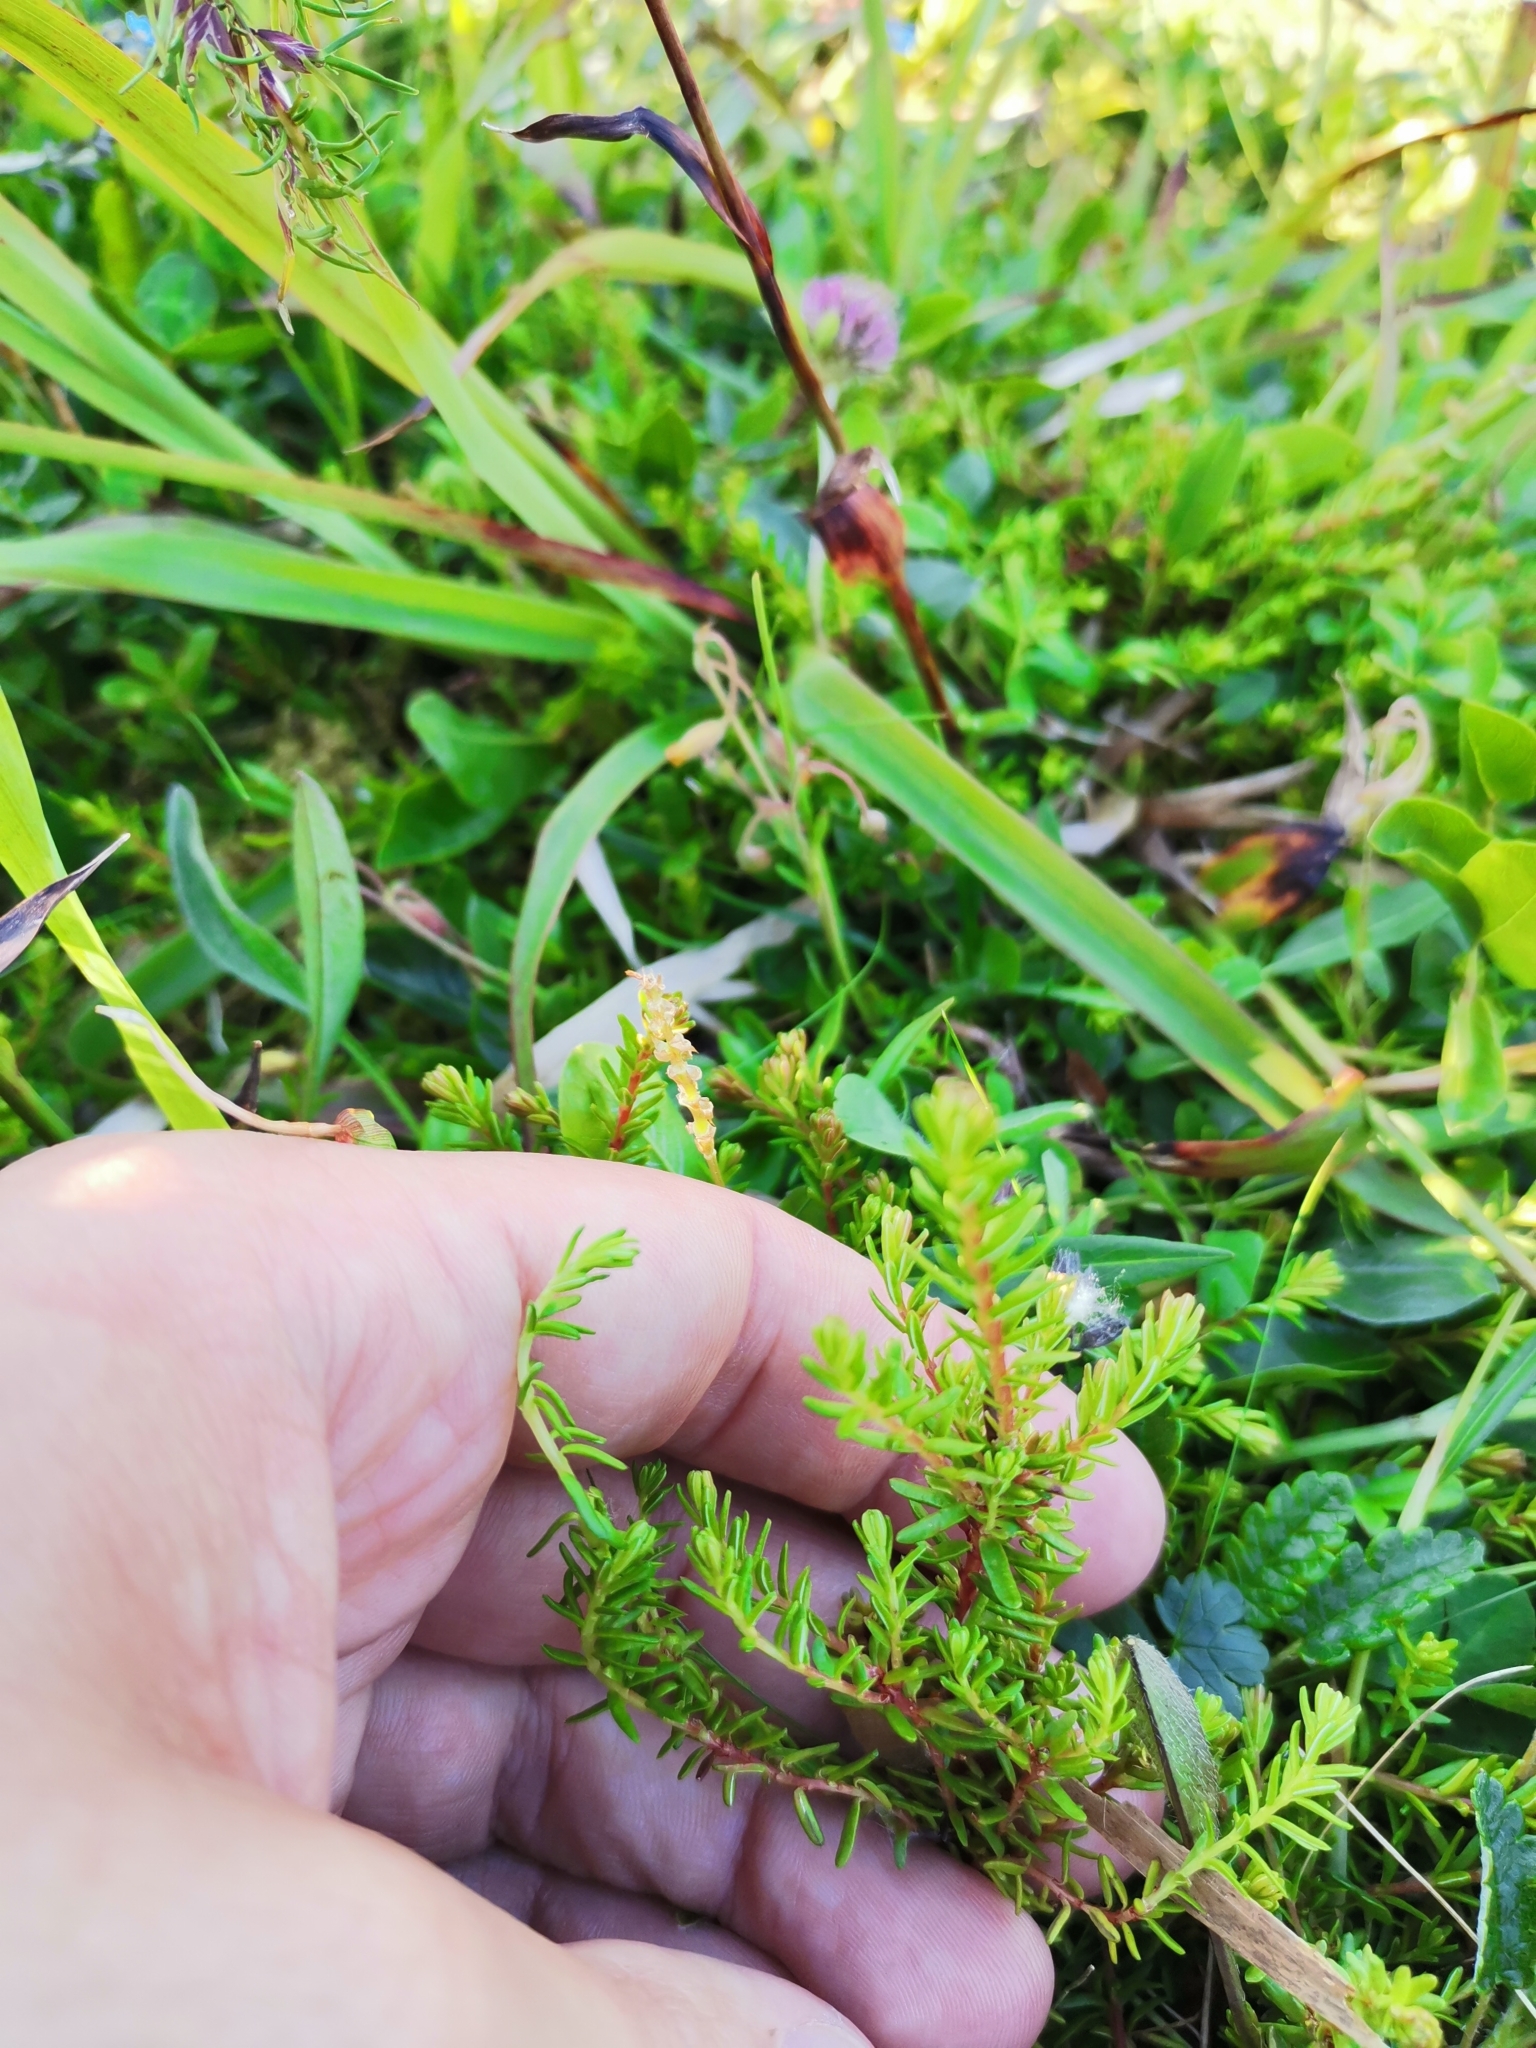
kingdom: Plantae
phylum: Tracheophyta
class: Magnoliopsida
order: Ericales
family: Ericaceae
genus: Empetrum
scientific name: Empetrum nigrum
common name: Black crowberry
